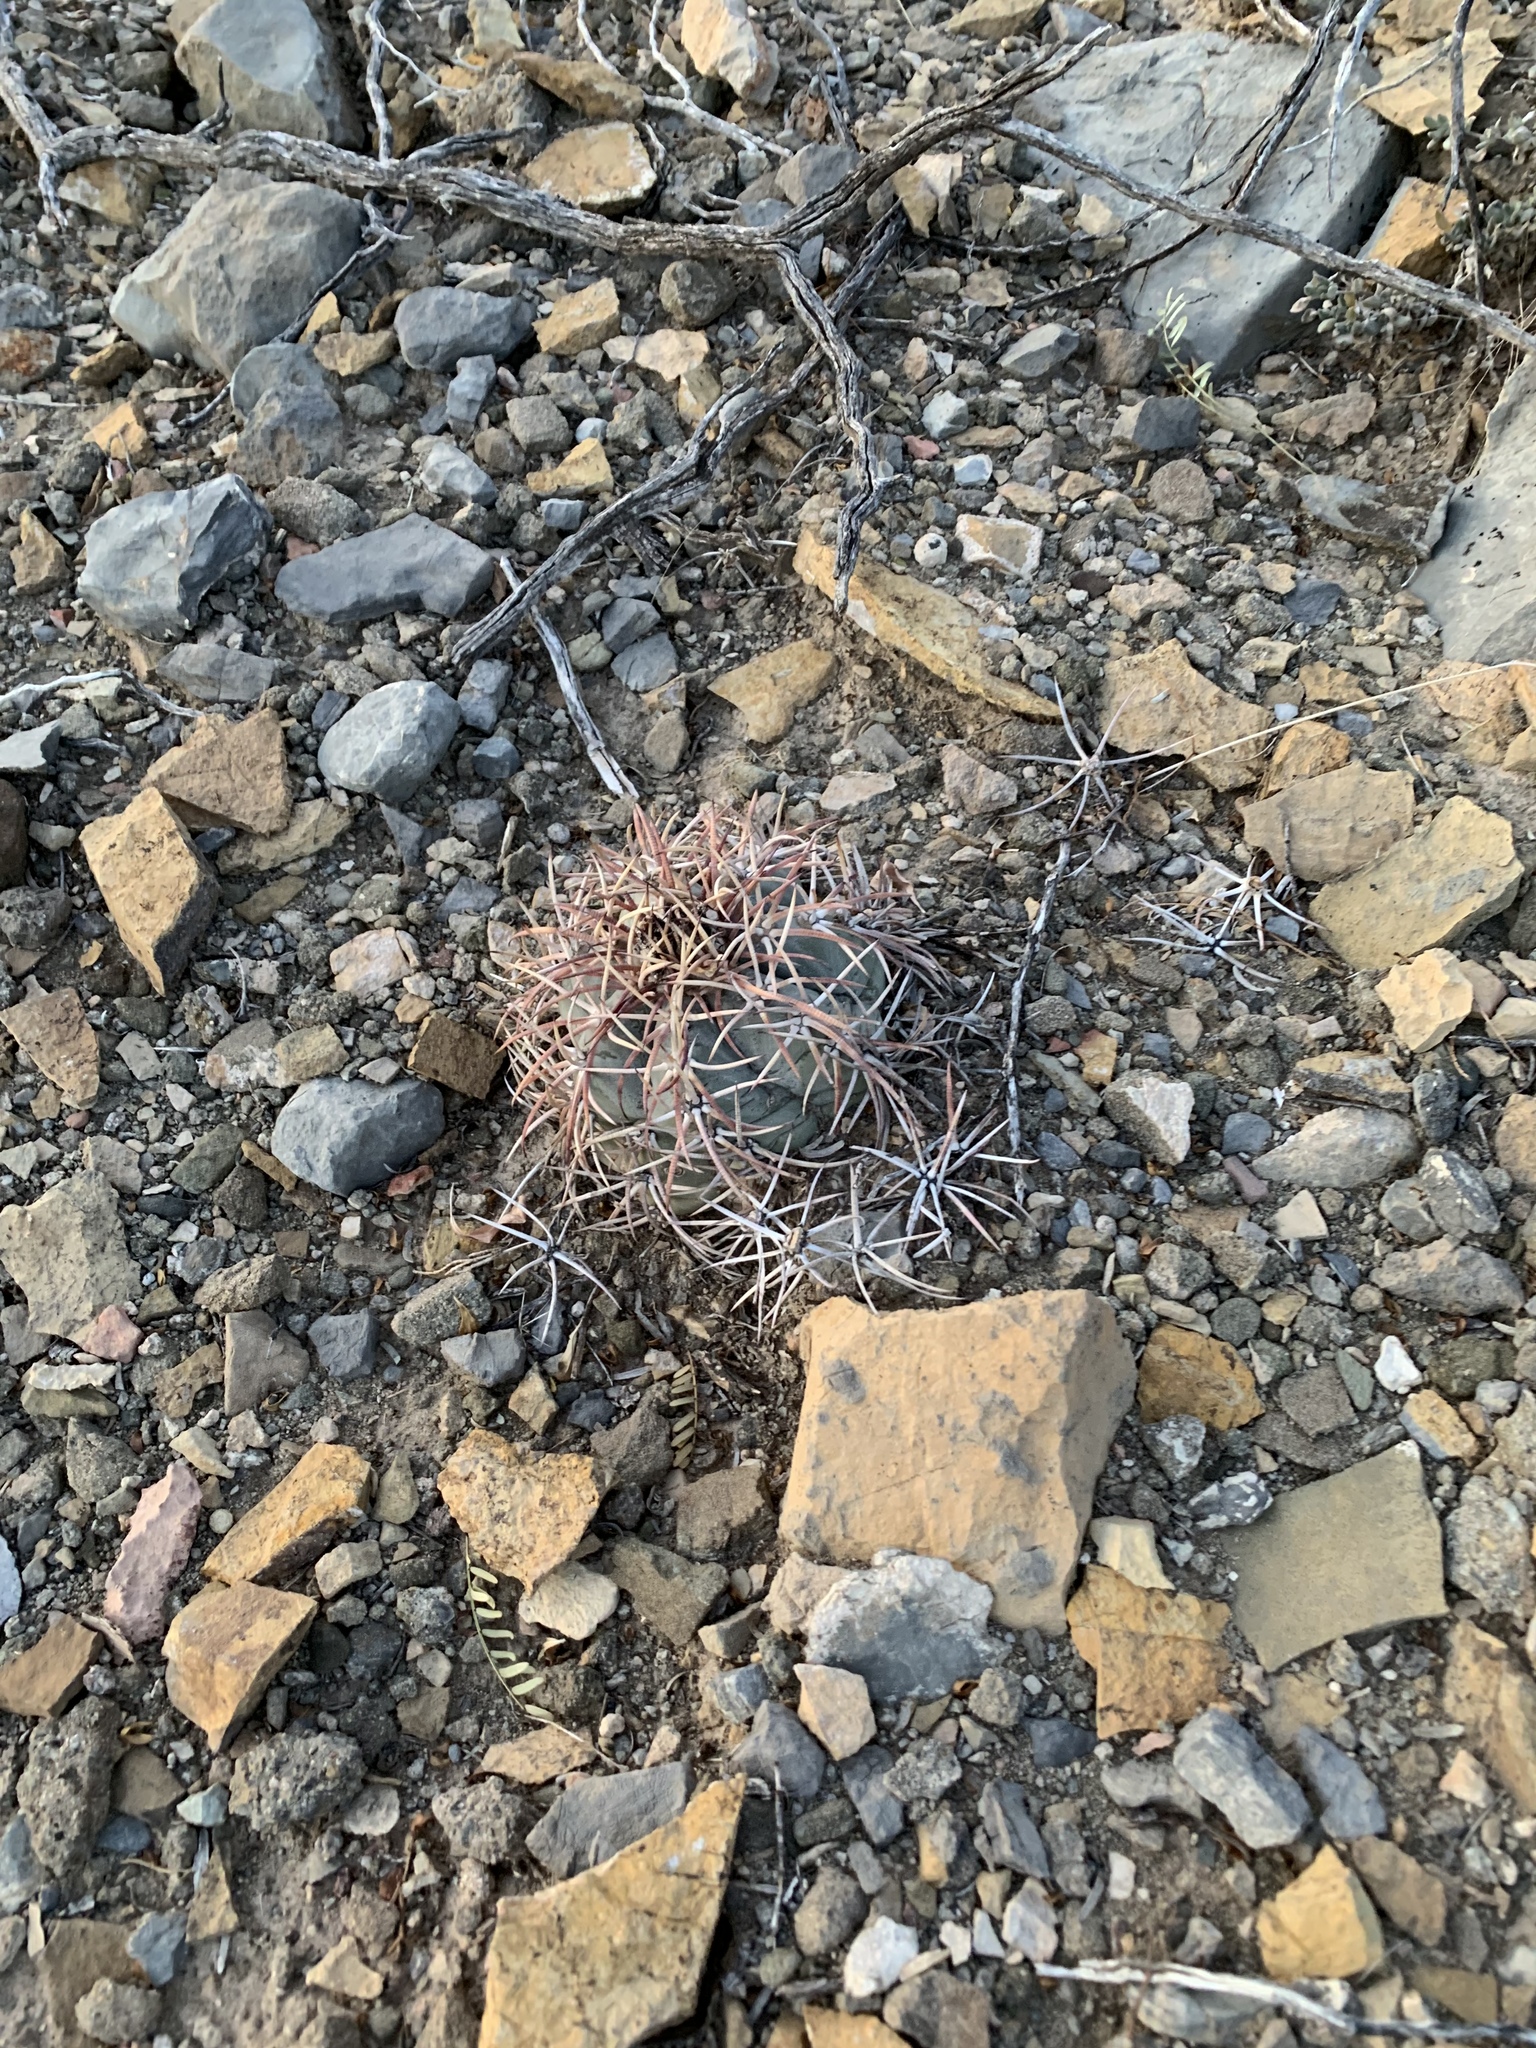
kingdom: Plantae
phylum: Tracheophyta
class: Magnoliopsida
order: Caryophyllales
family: Cactaceae
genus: Echinocactus
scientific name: Echinocactus horizonthalonius
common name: Devilshead
